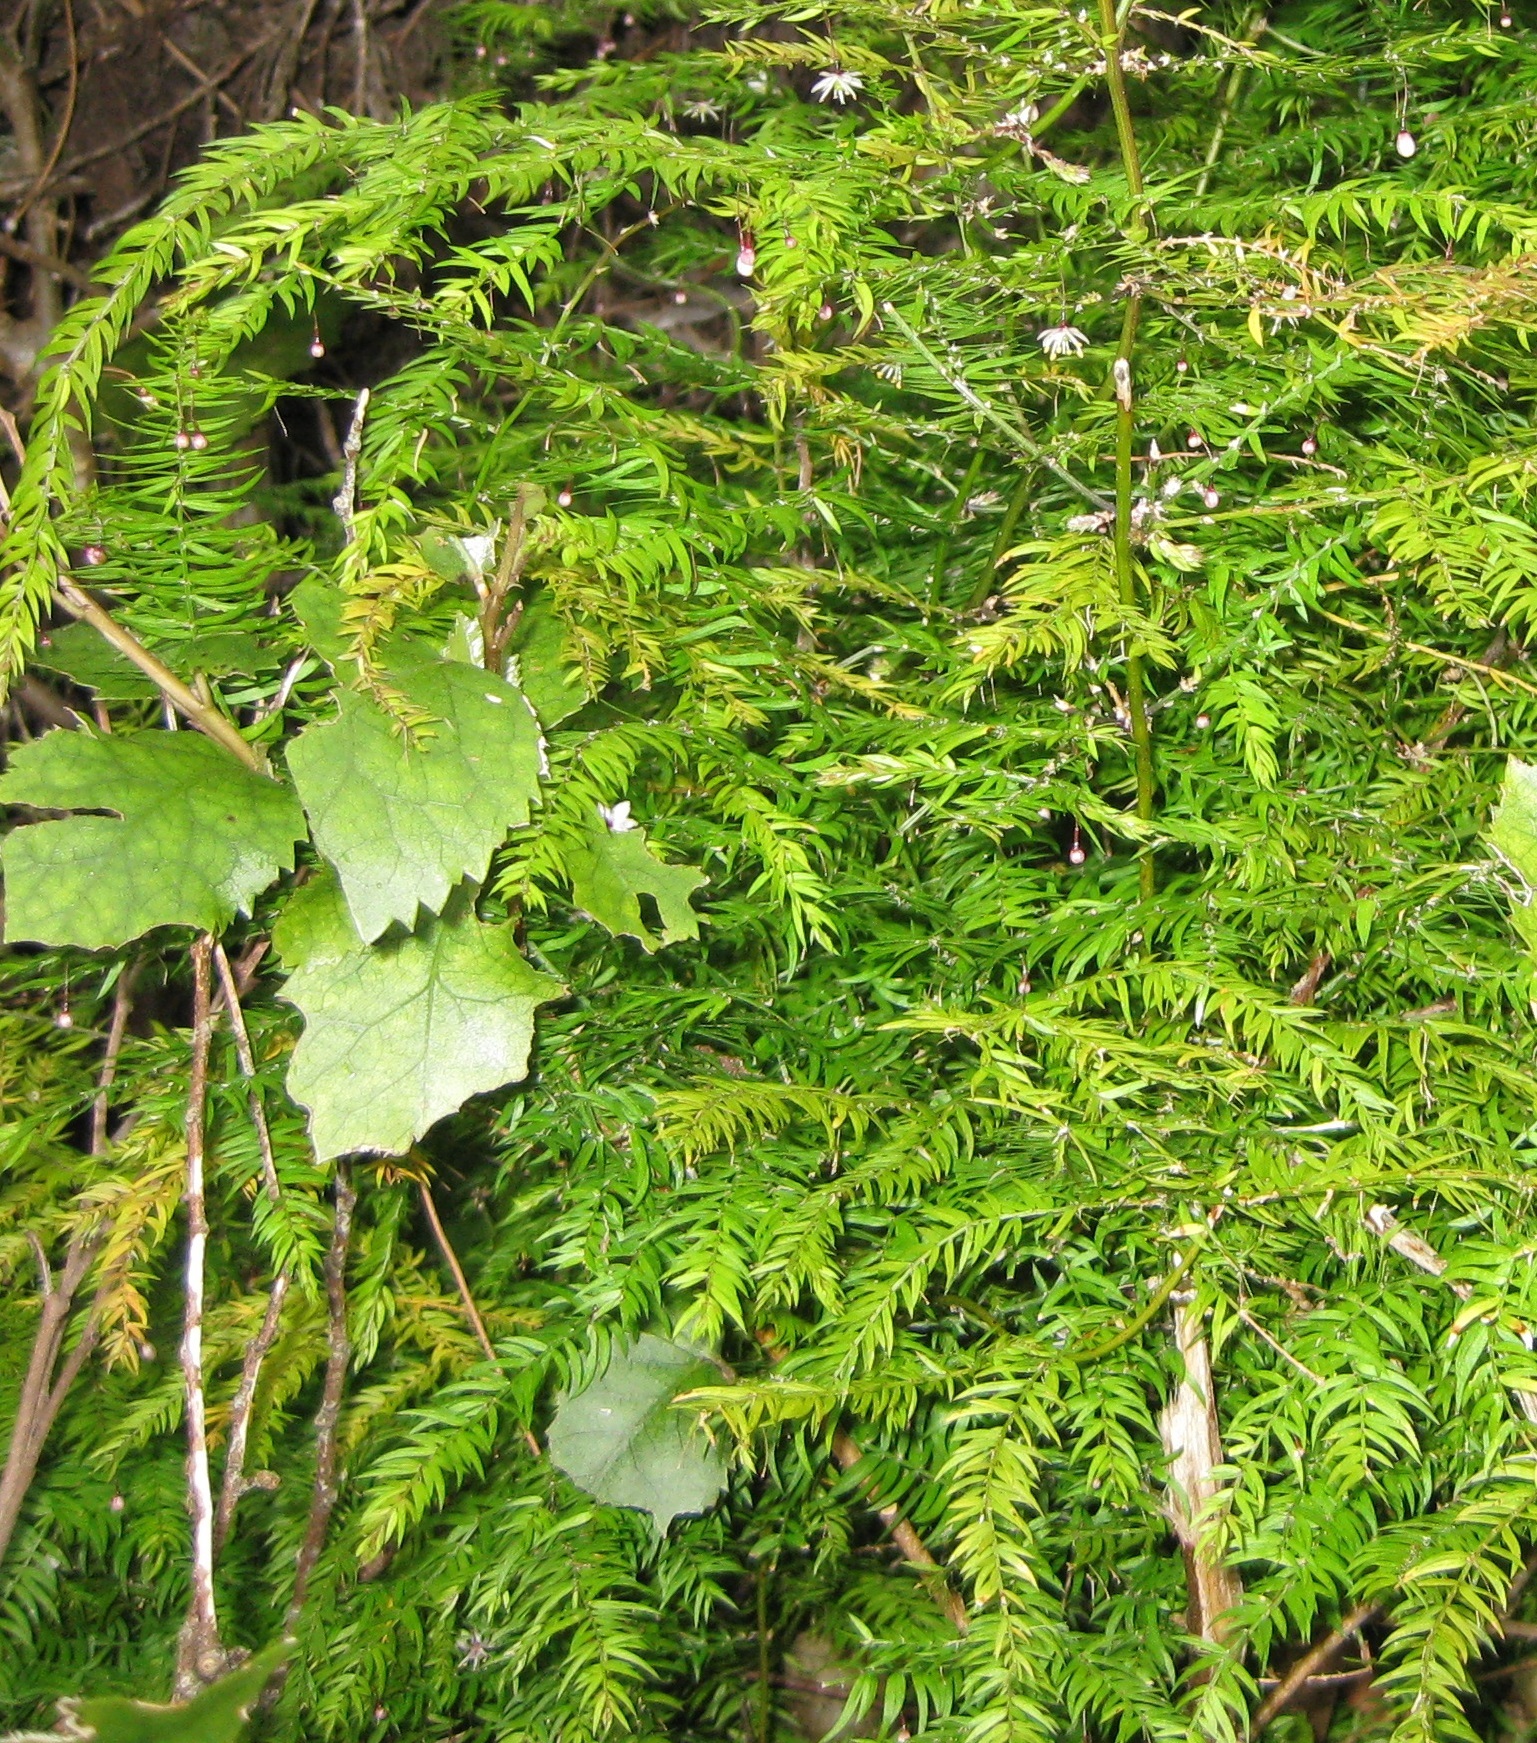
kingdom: Plantae
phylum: Tracheophyta
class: Liliopsida
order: Asparagales
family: Asparagaceae
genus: Asparagus
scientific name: Asparagus scandens
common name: Asparagus-fern
